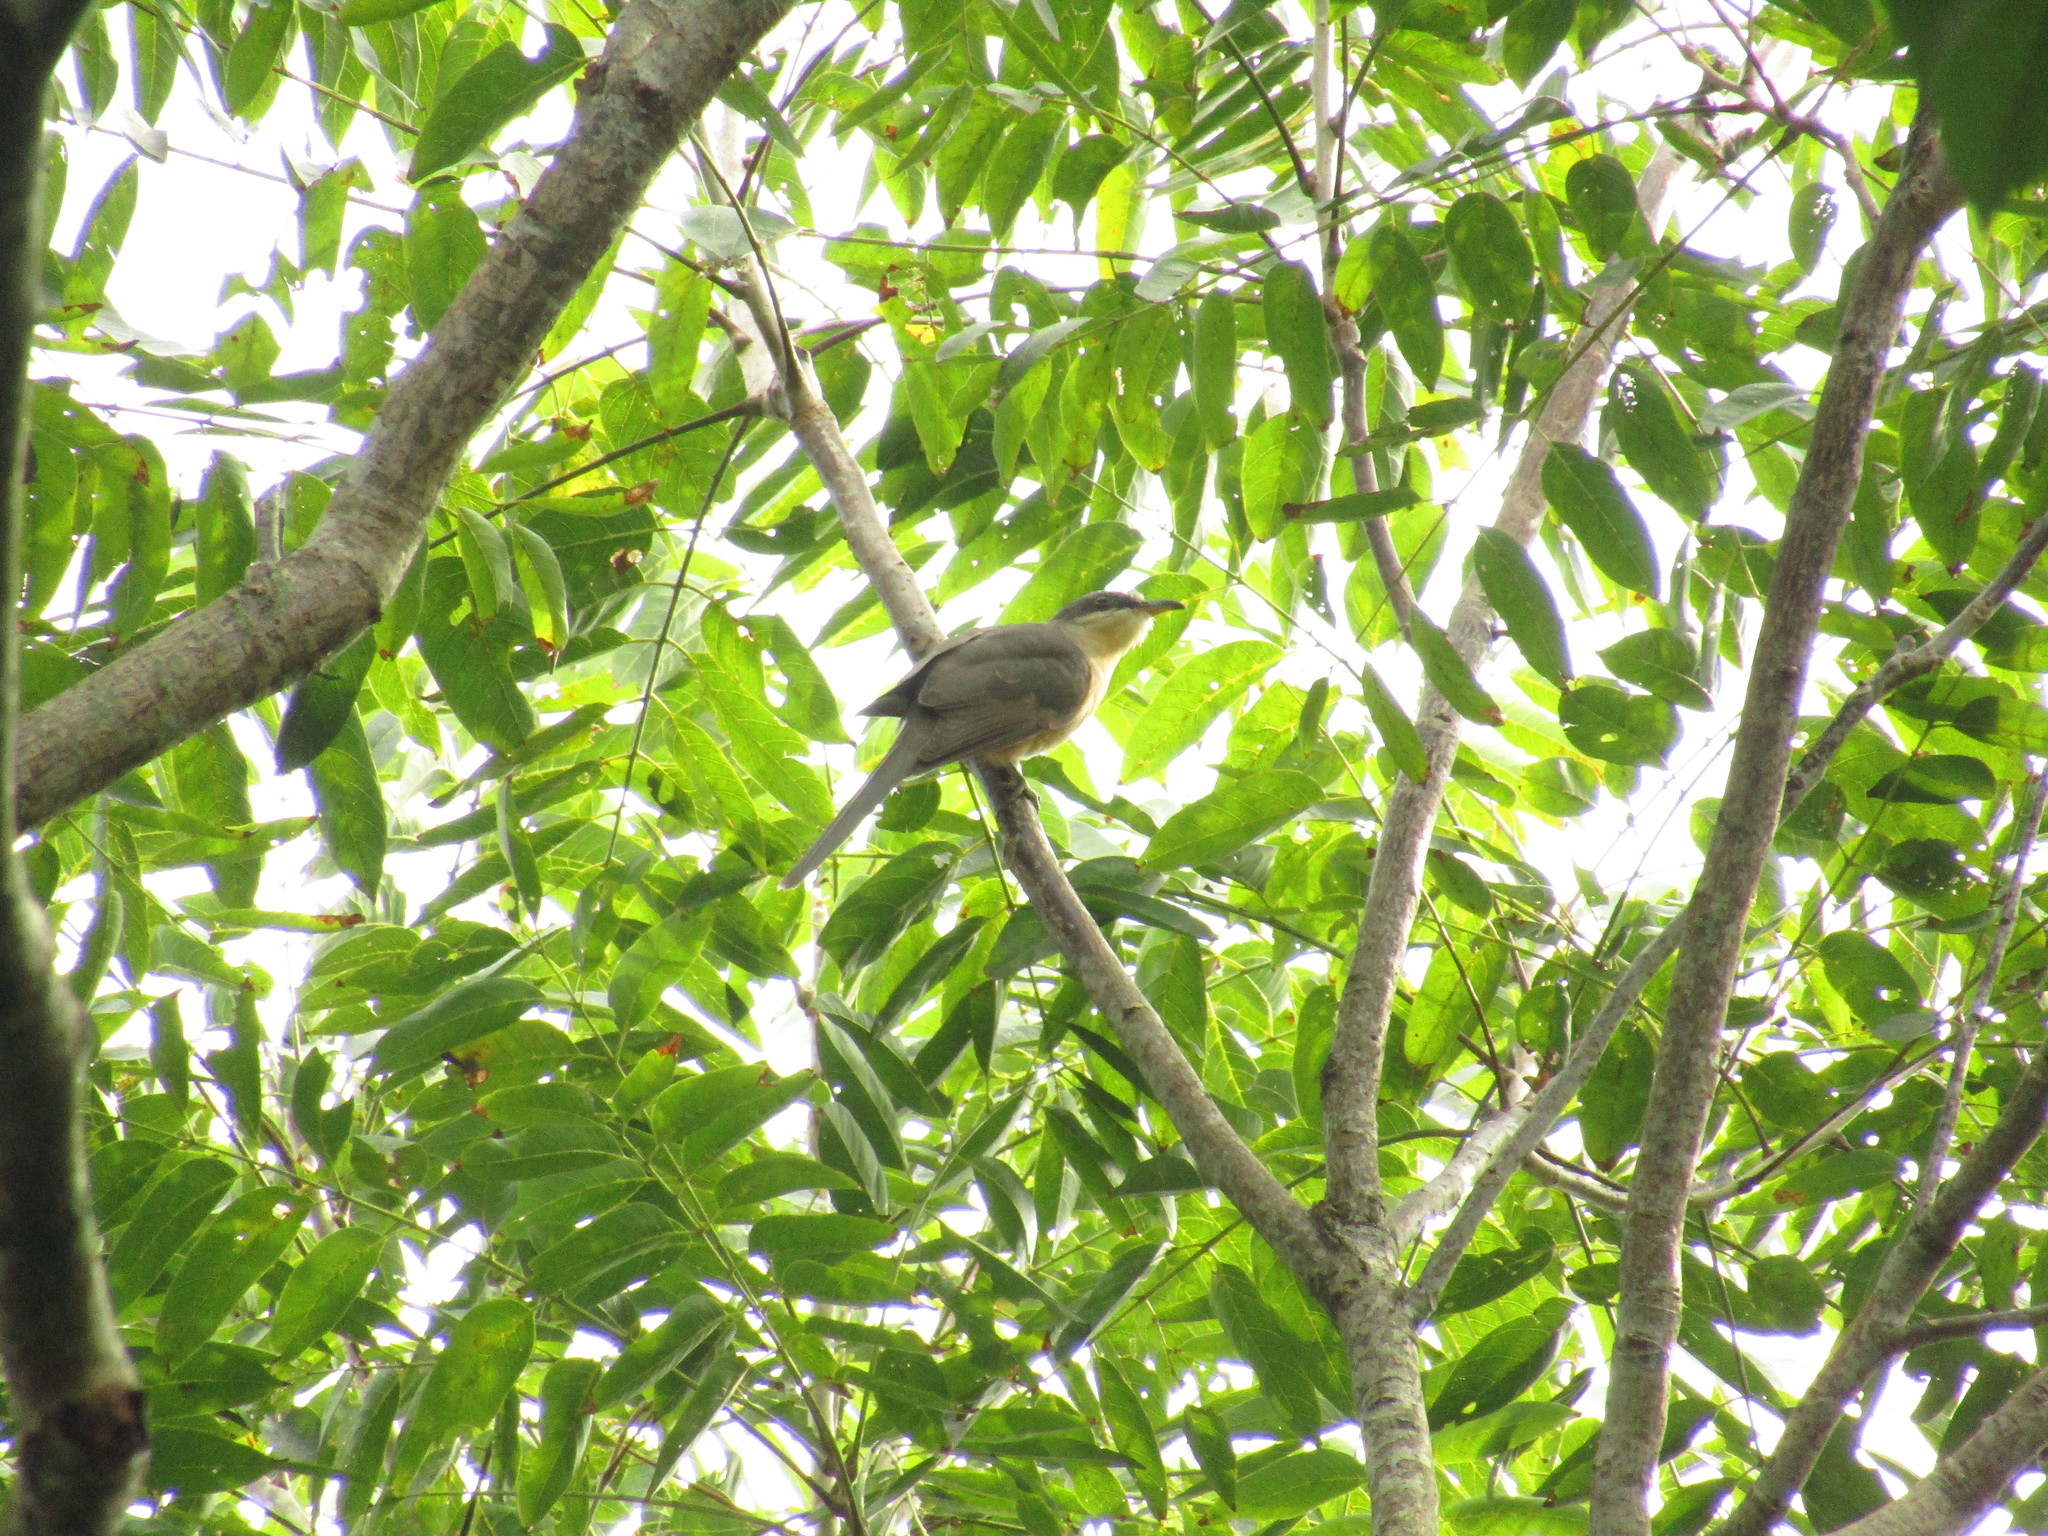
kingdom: Animalia
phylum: Chordata
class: Aves
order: Cuculiformes
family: Cuculidae
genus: Coccyzus
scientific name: Coccyzus minor
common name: Mangrove cuckoo
